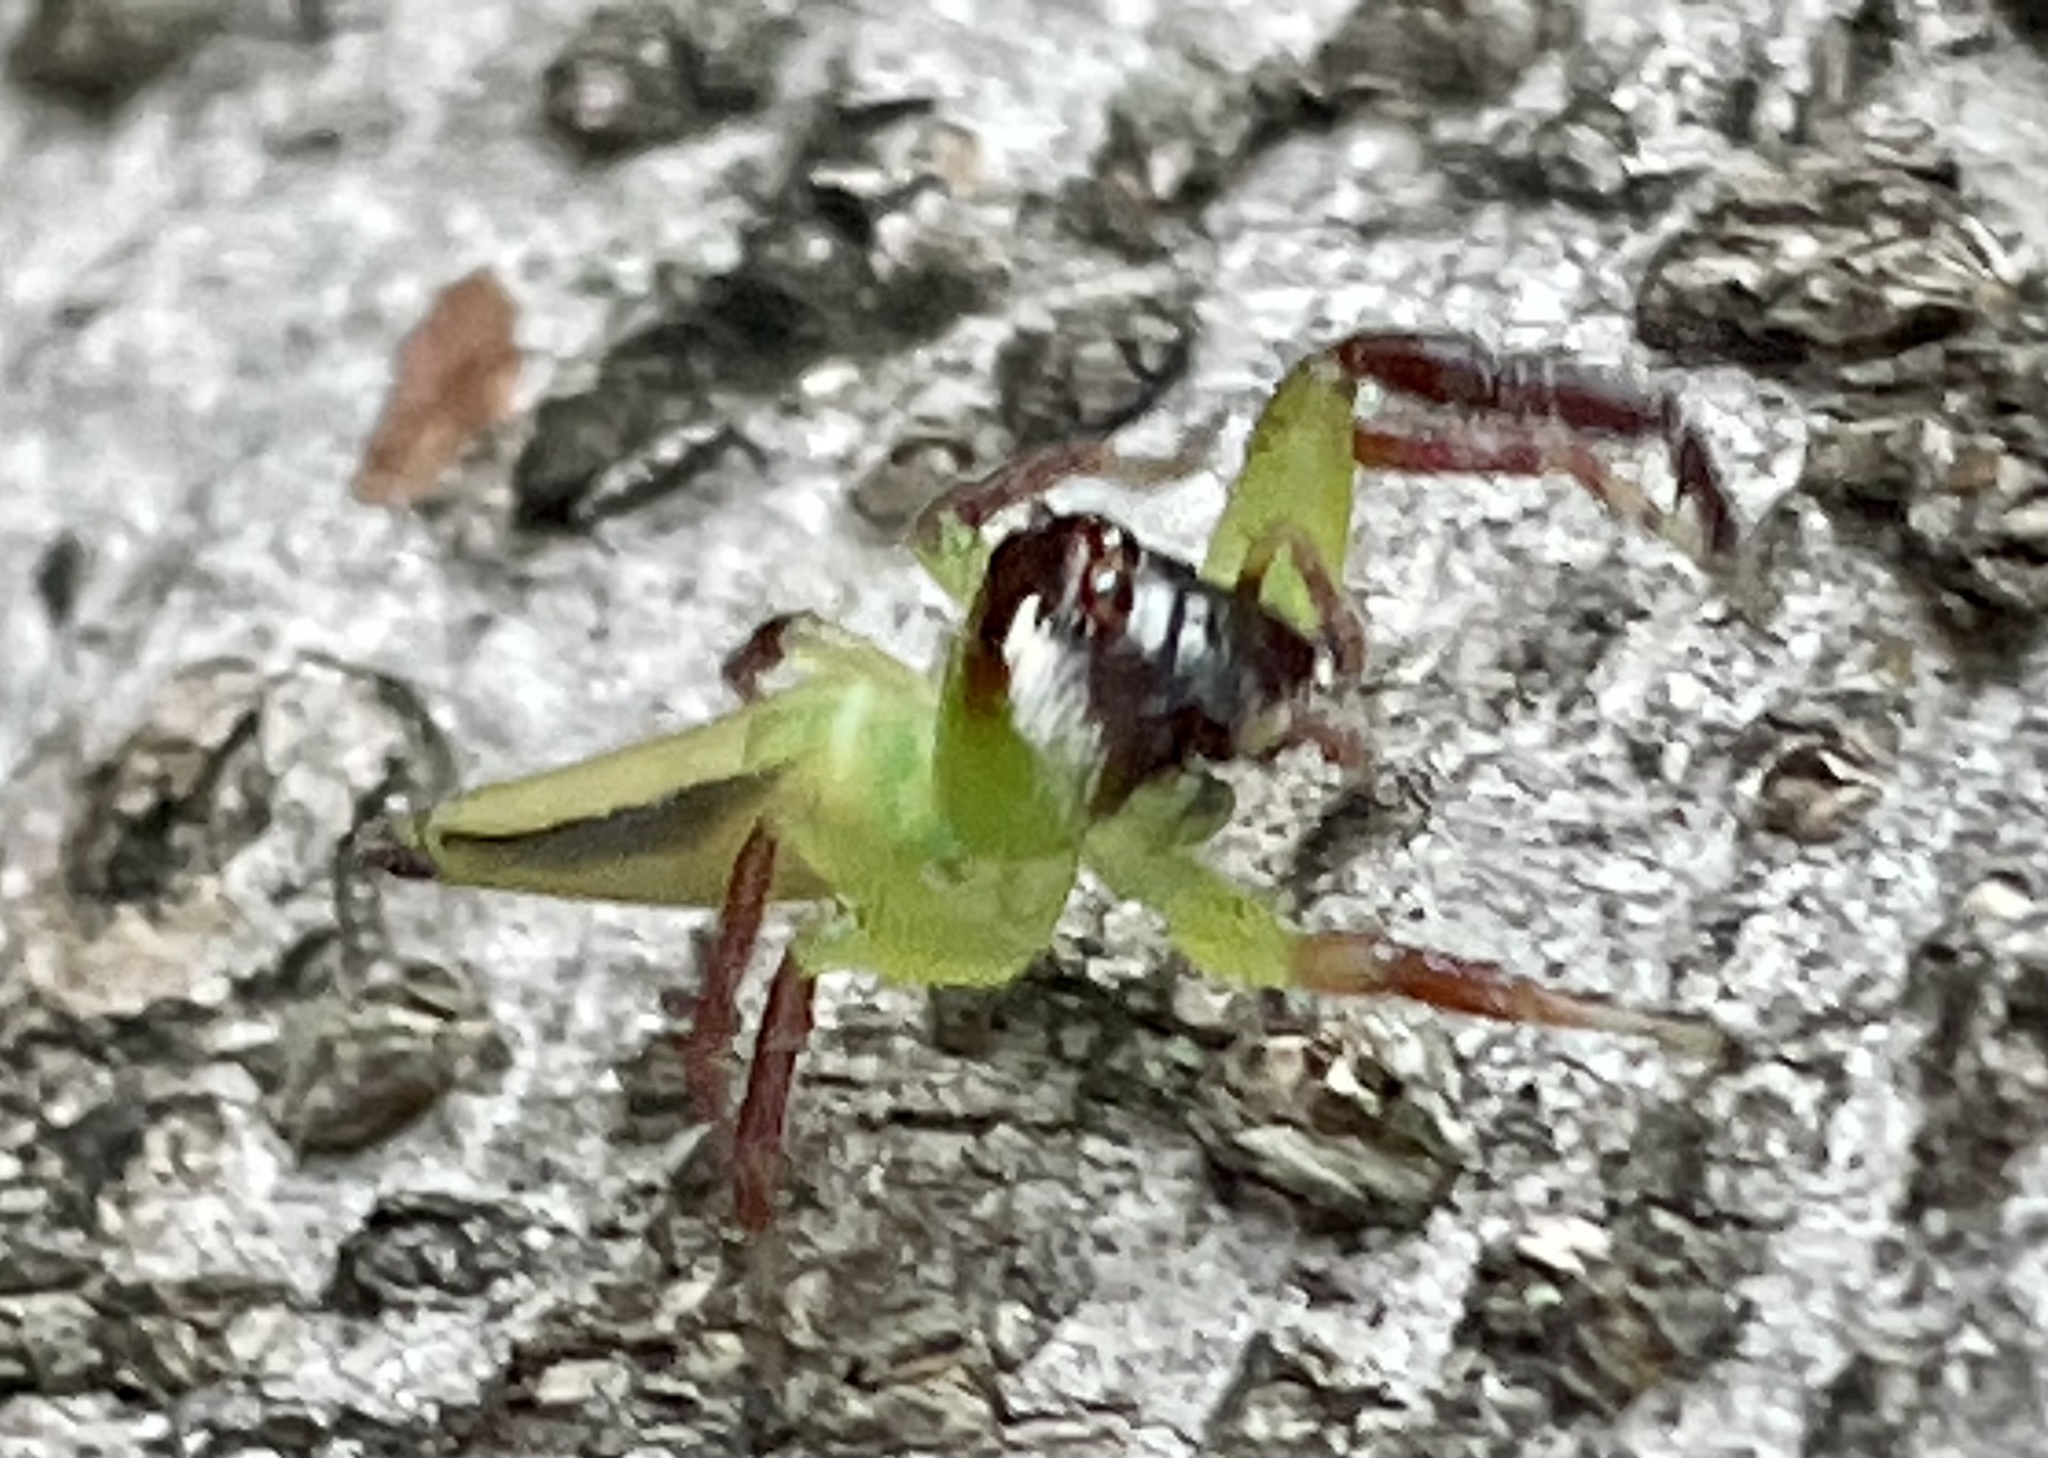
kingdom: Animalia
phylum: Arthropoda
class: Arachnida
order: Araneae
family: Salticidae
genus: Mopsus
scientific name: Mopsus mormon
